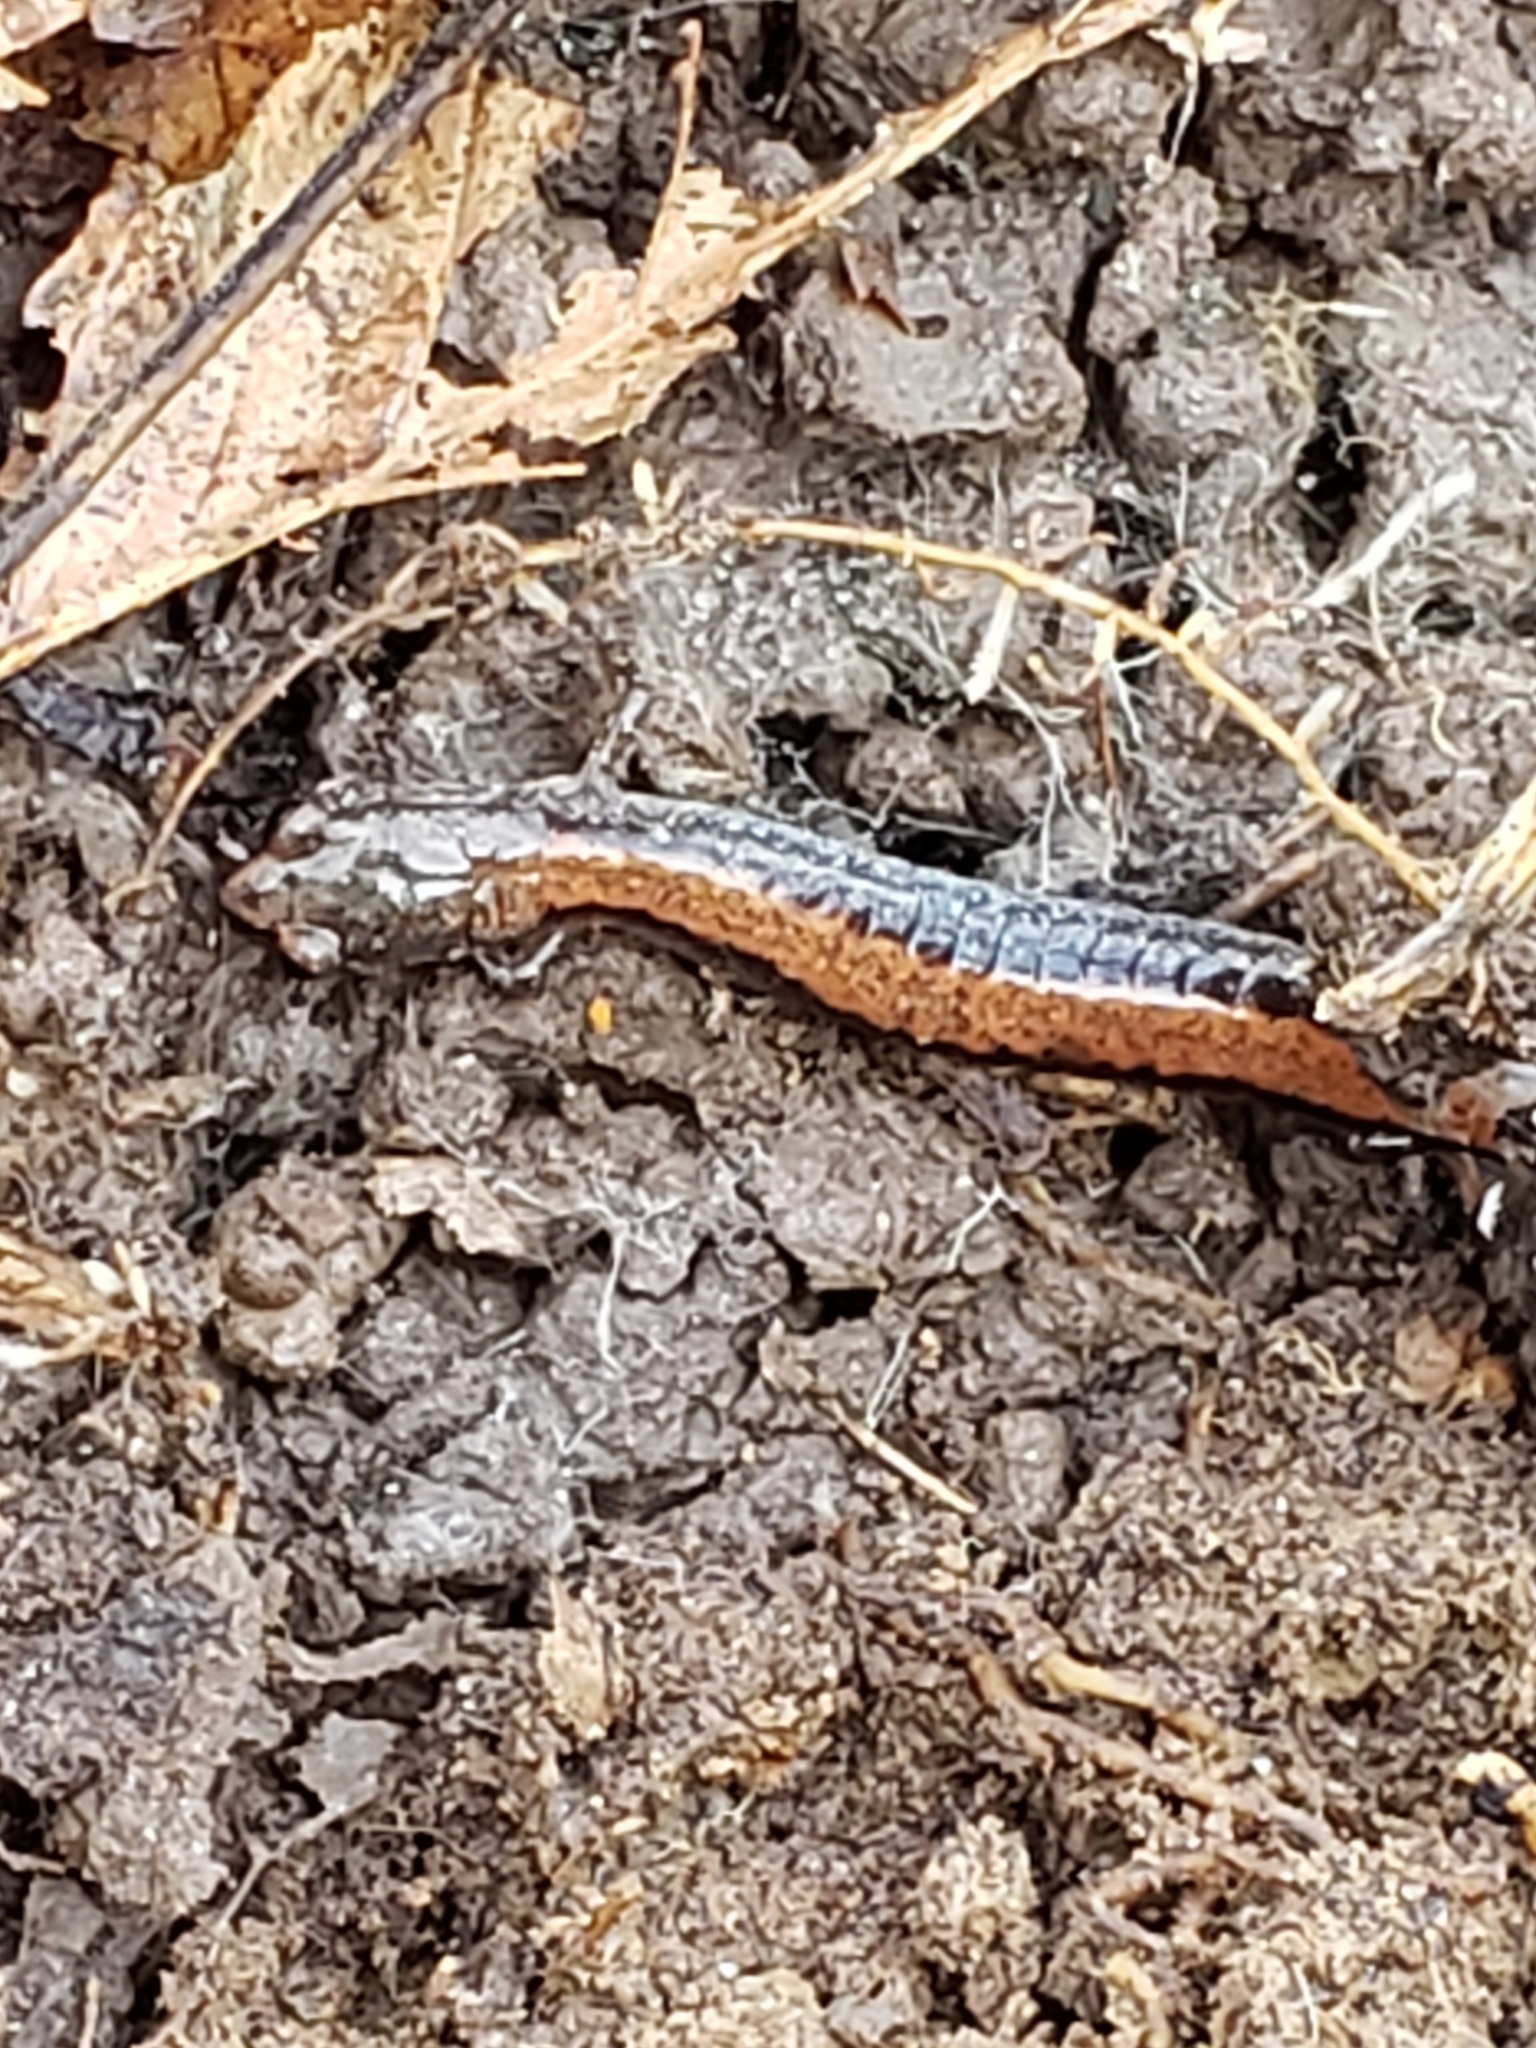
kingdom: Animalia
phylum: Chordata
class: Amphibia
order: Caudata
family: Plethodontidae
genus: Plethodon
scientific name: Plethodon cinereus
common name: Redback salamander
